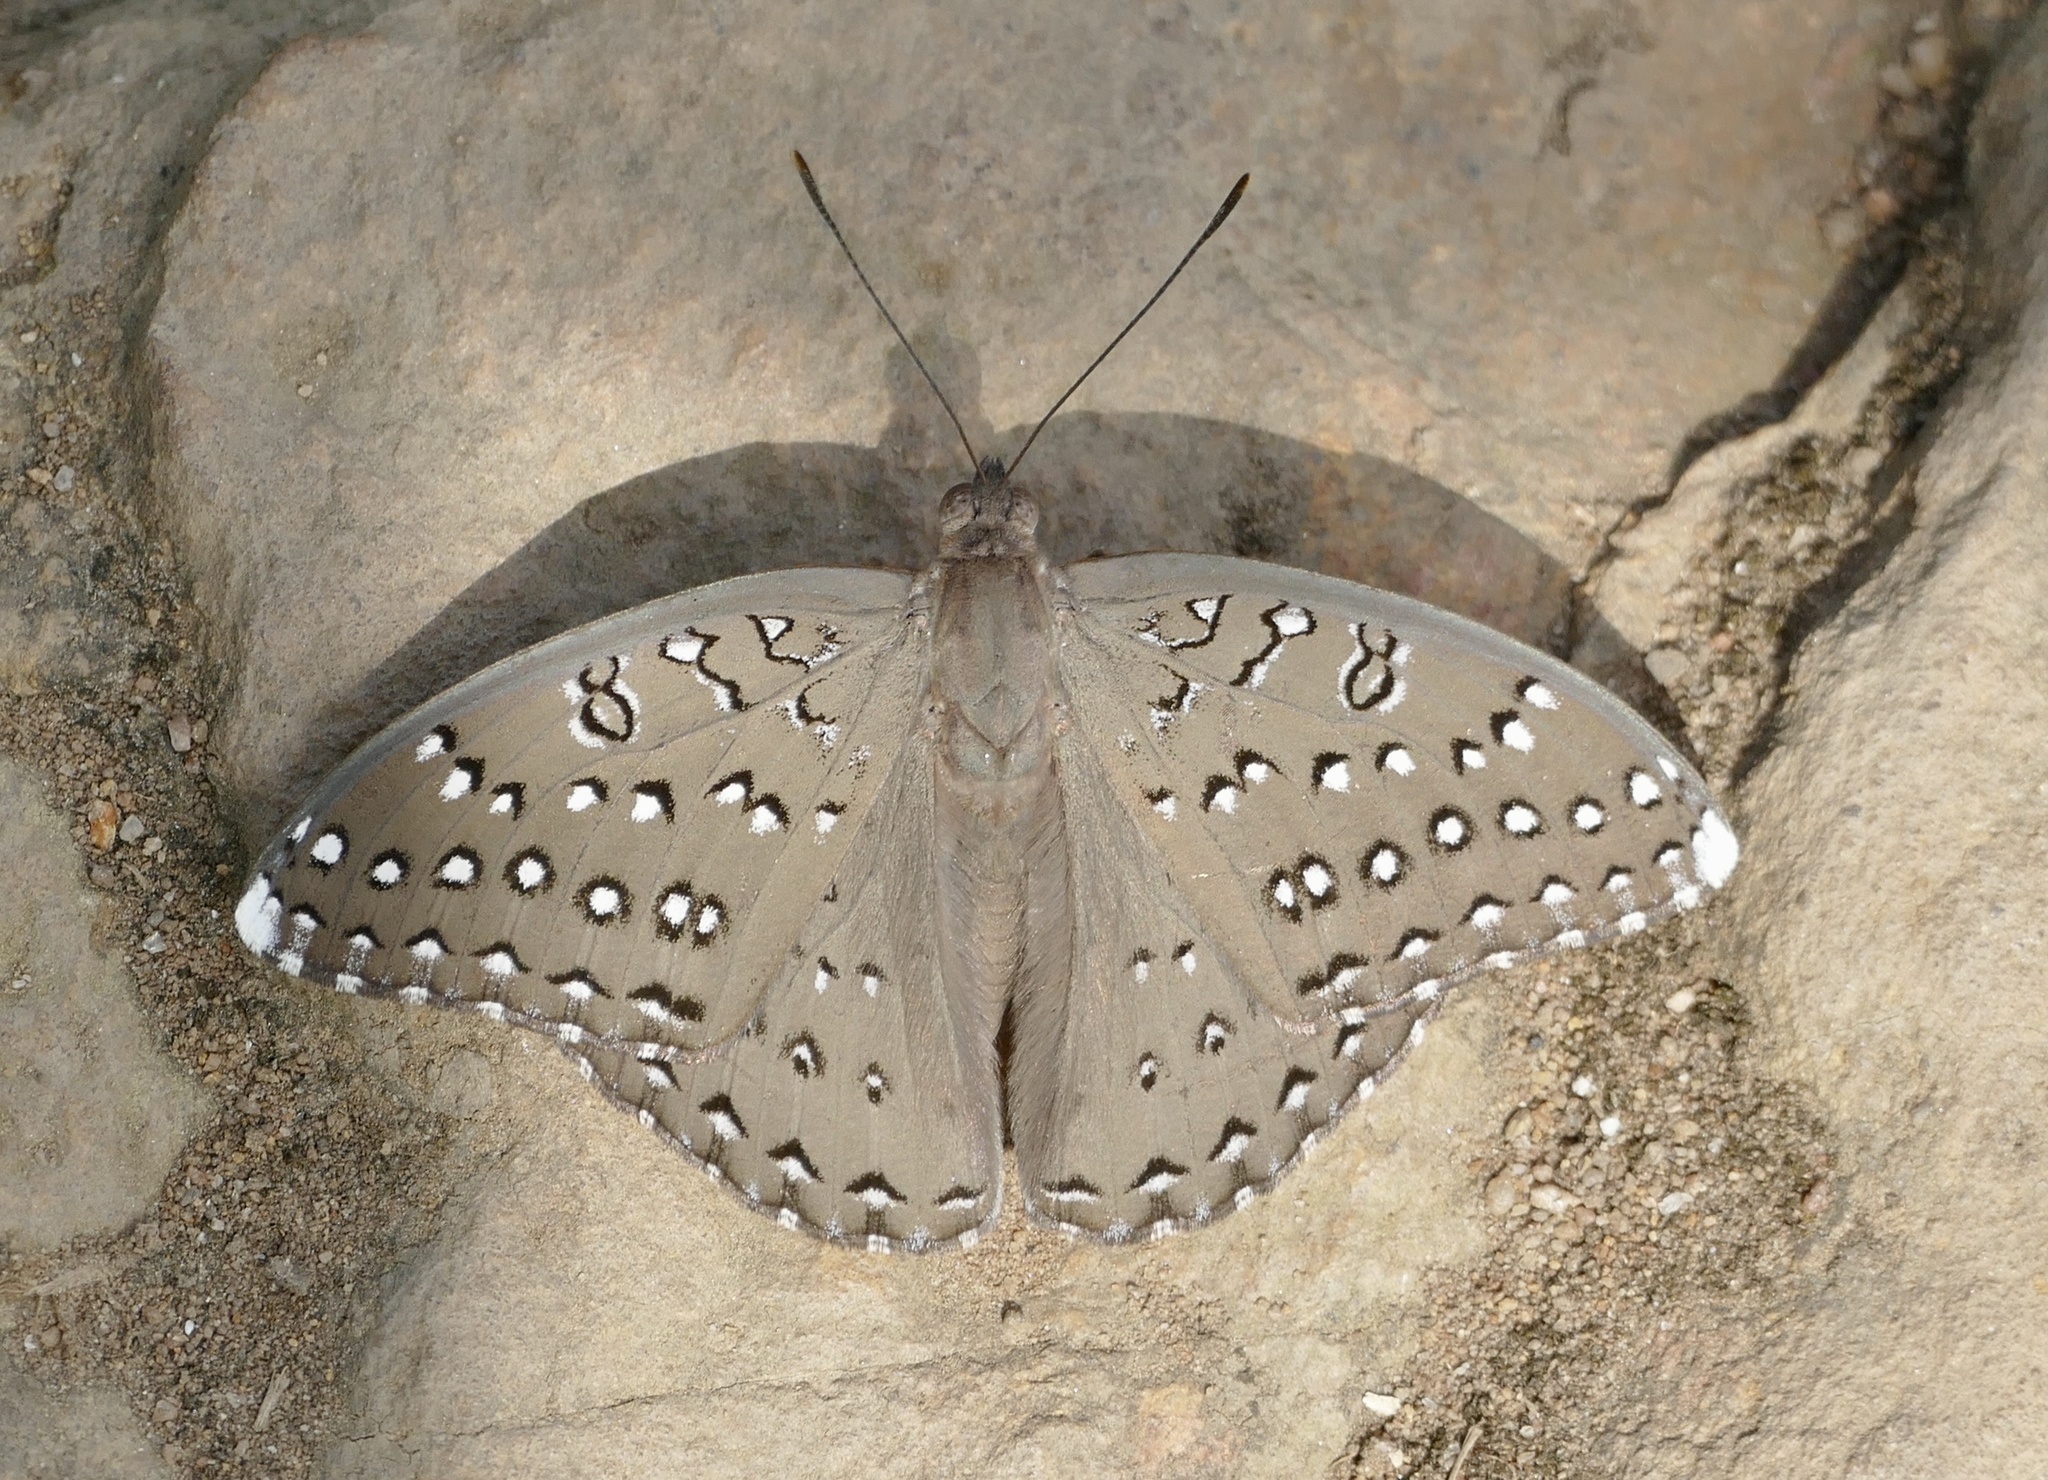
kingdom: Animalia
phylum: Arthropoda
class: Insecta
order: Lepidoptera
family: Nymphalidae
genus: Hamanumida
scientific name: Hamanumida daedalus
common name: Guinea-fowl butterfly
